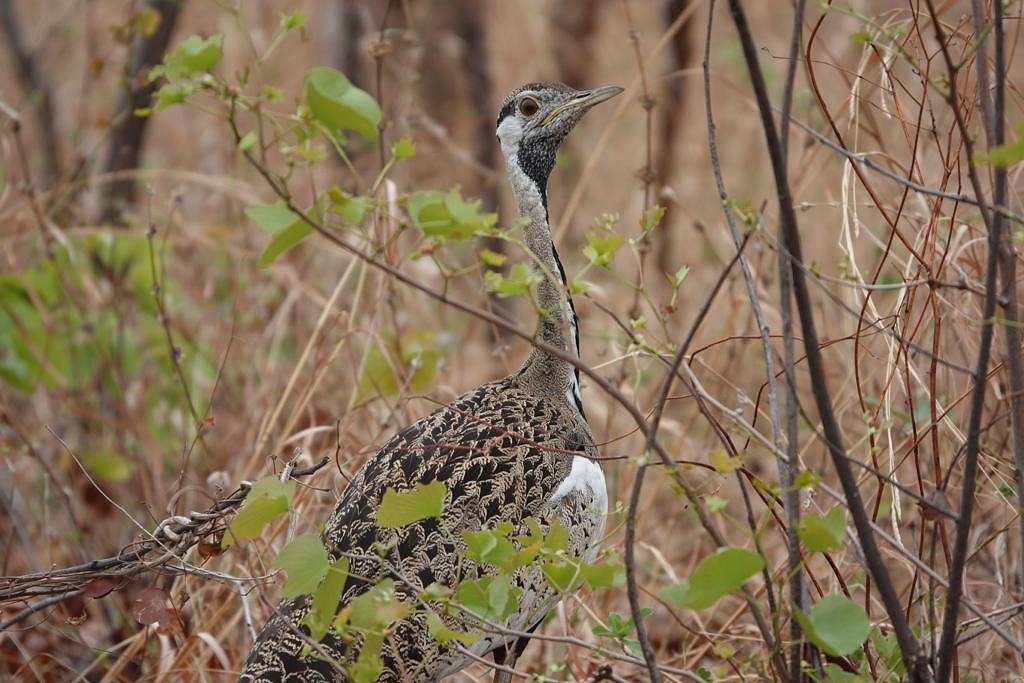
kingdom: Animalia
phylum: Chordata
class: Aves
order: Otidiformes
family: Otididae
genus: Lissotis
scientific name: Lissotis melanogaster
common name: Black-bellied bustard
